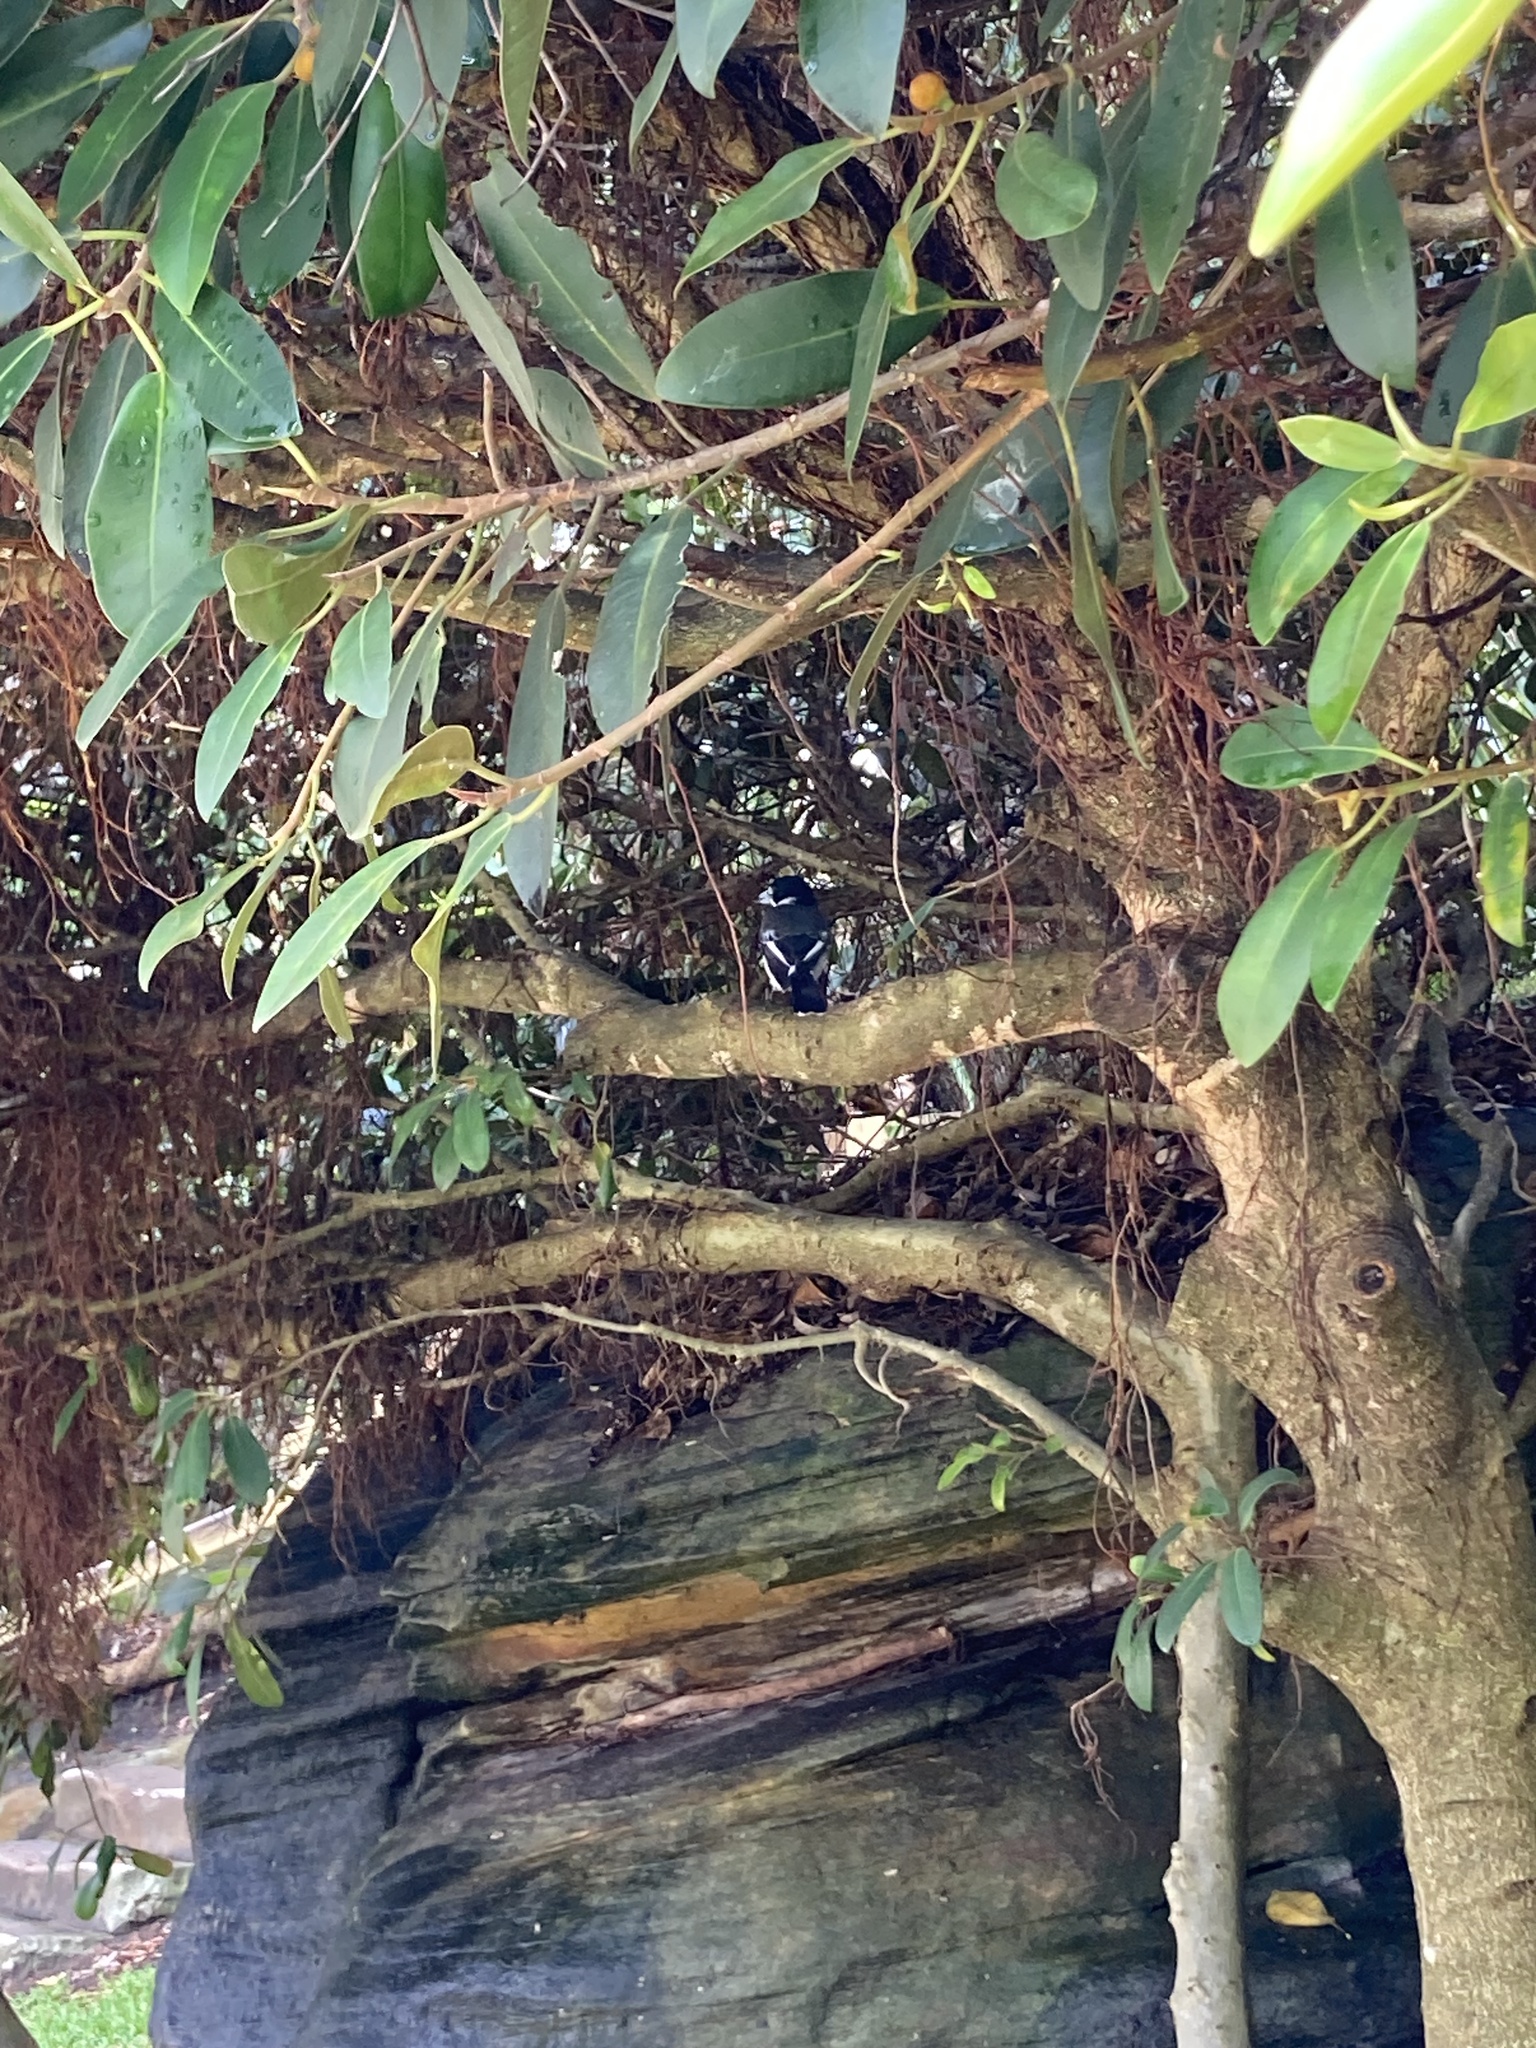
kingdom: Animalia
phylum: Chordata
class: Aves
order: Passeriformes
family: Cracticidae
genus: Cracticus
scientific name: Cracticus torquatus
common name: Grey butcherbird
